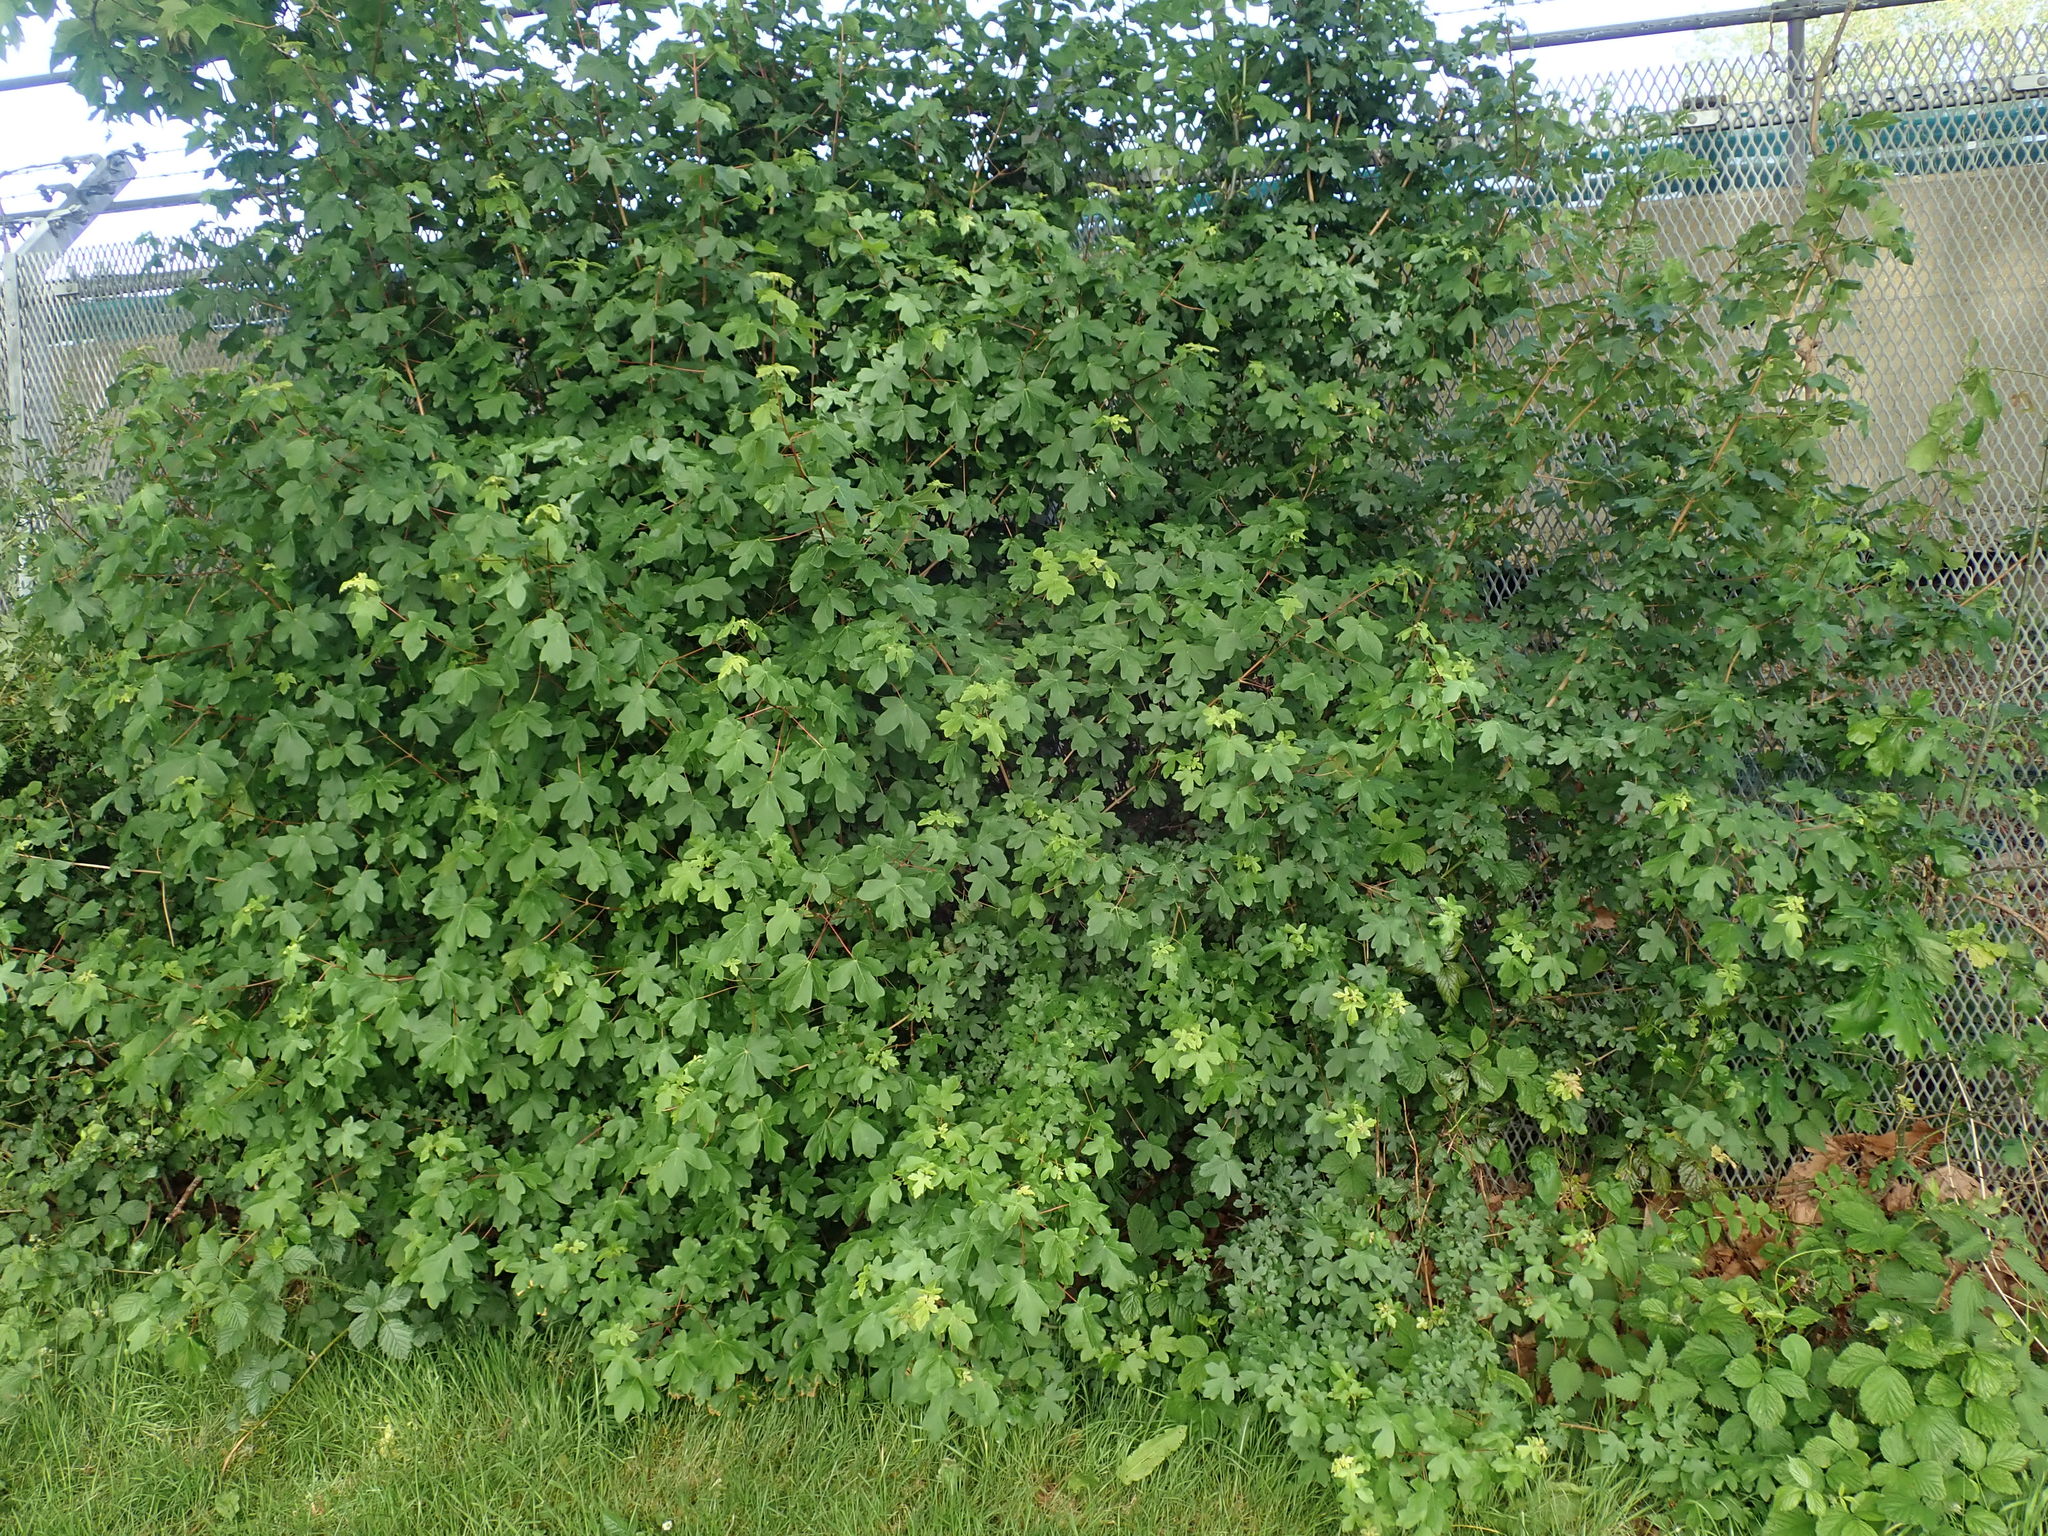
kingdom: Plantae
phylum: Tracheophyta
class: Magnoliopsida
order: Sapindales
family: Sapindaceae
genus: Acer
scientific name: Acer campestre
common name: Field maple
